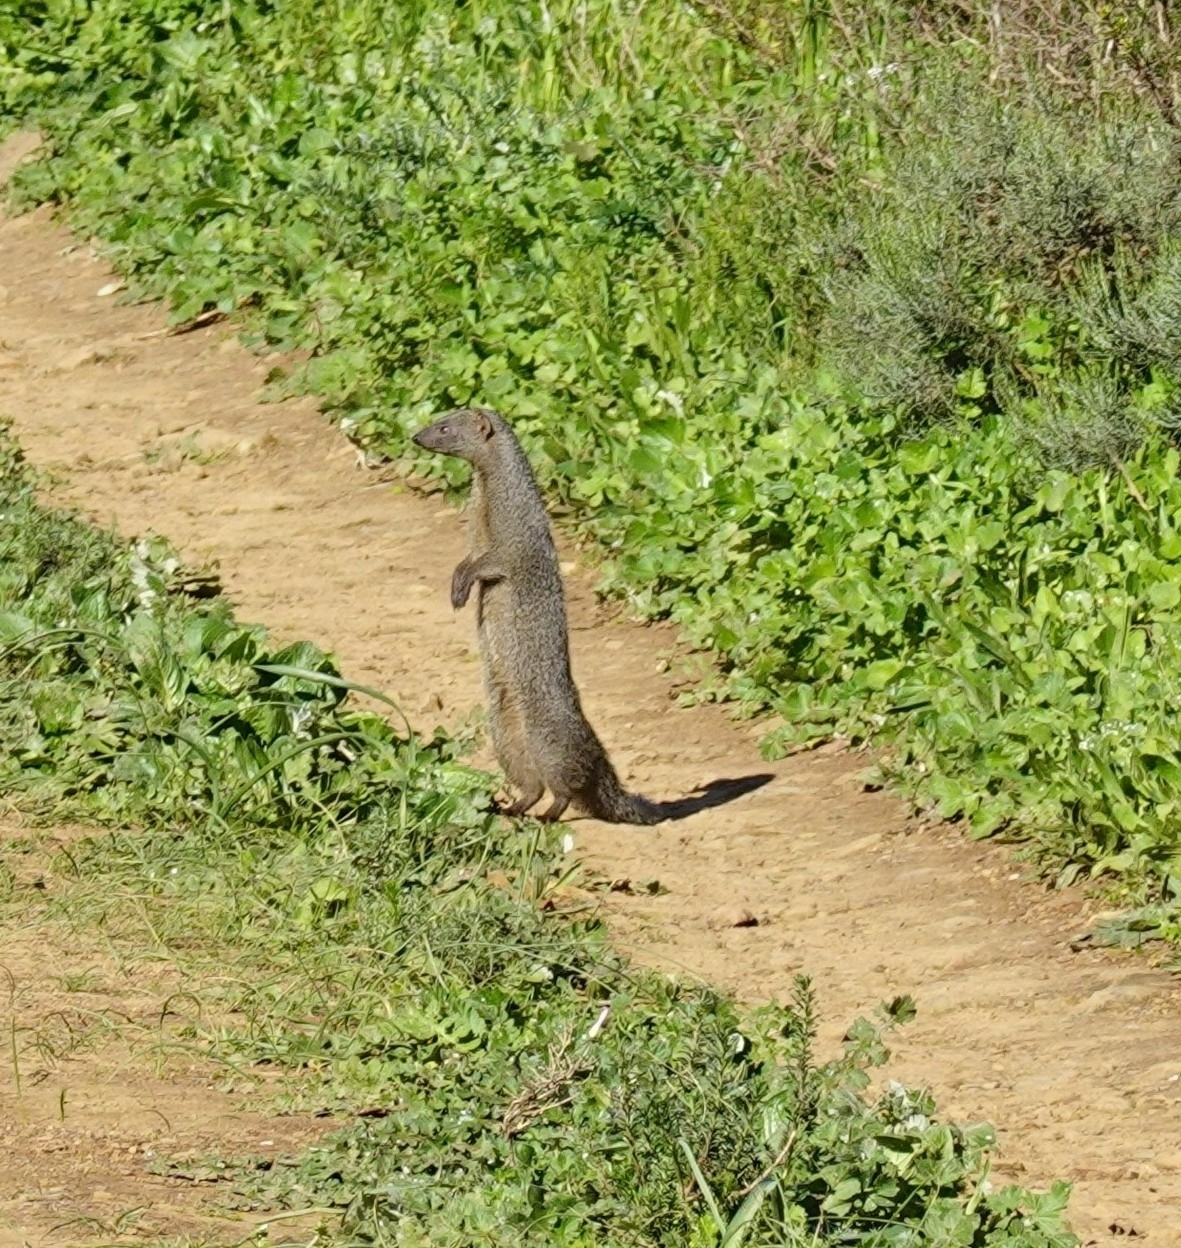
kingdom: Animalia
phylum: Chordata
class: Mammalia
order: Carnivora
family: Herpestidae
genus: Galerella
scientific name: Galerella pulverulenta
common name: Cape gray mongoose
